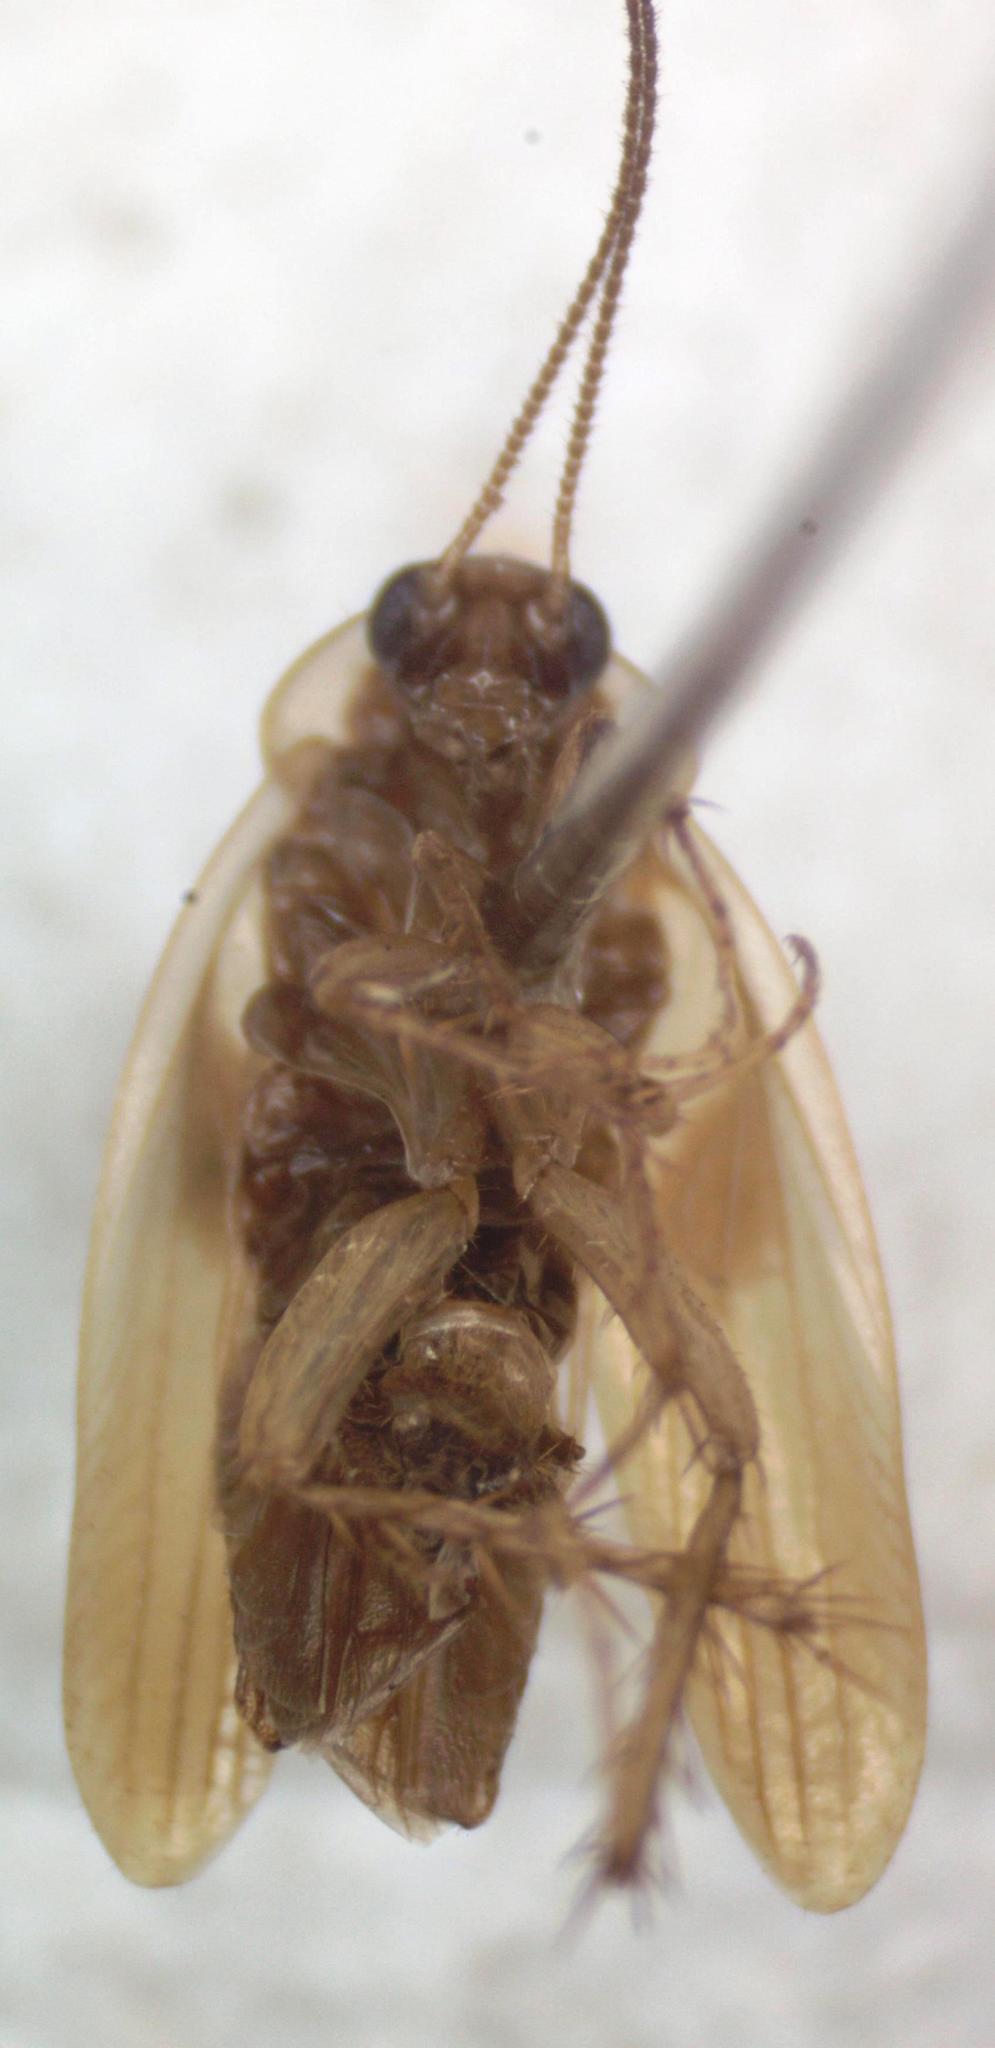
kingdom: Animalia
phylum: Arthropoda
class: Insecta
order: Blattodea
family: Anaplectidae
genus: Anaplecta
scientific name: Anaplecta hemiscotia
